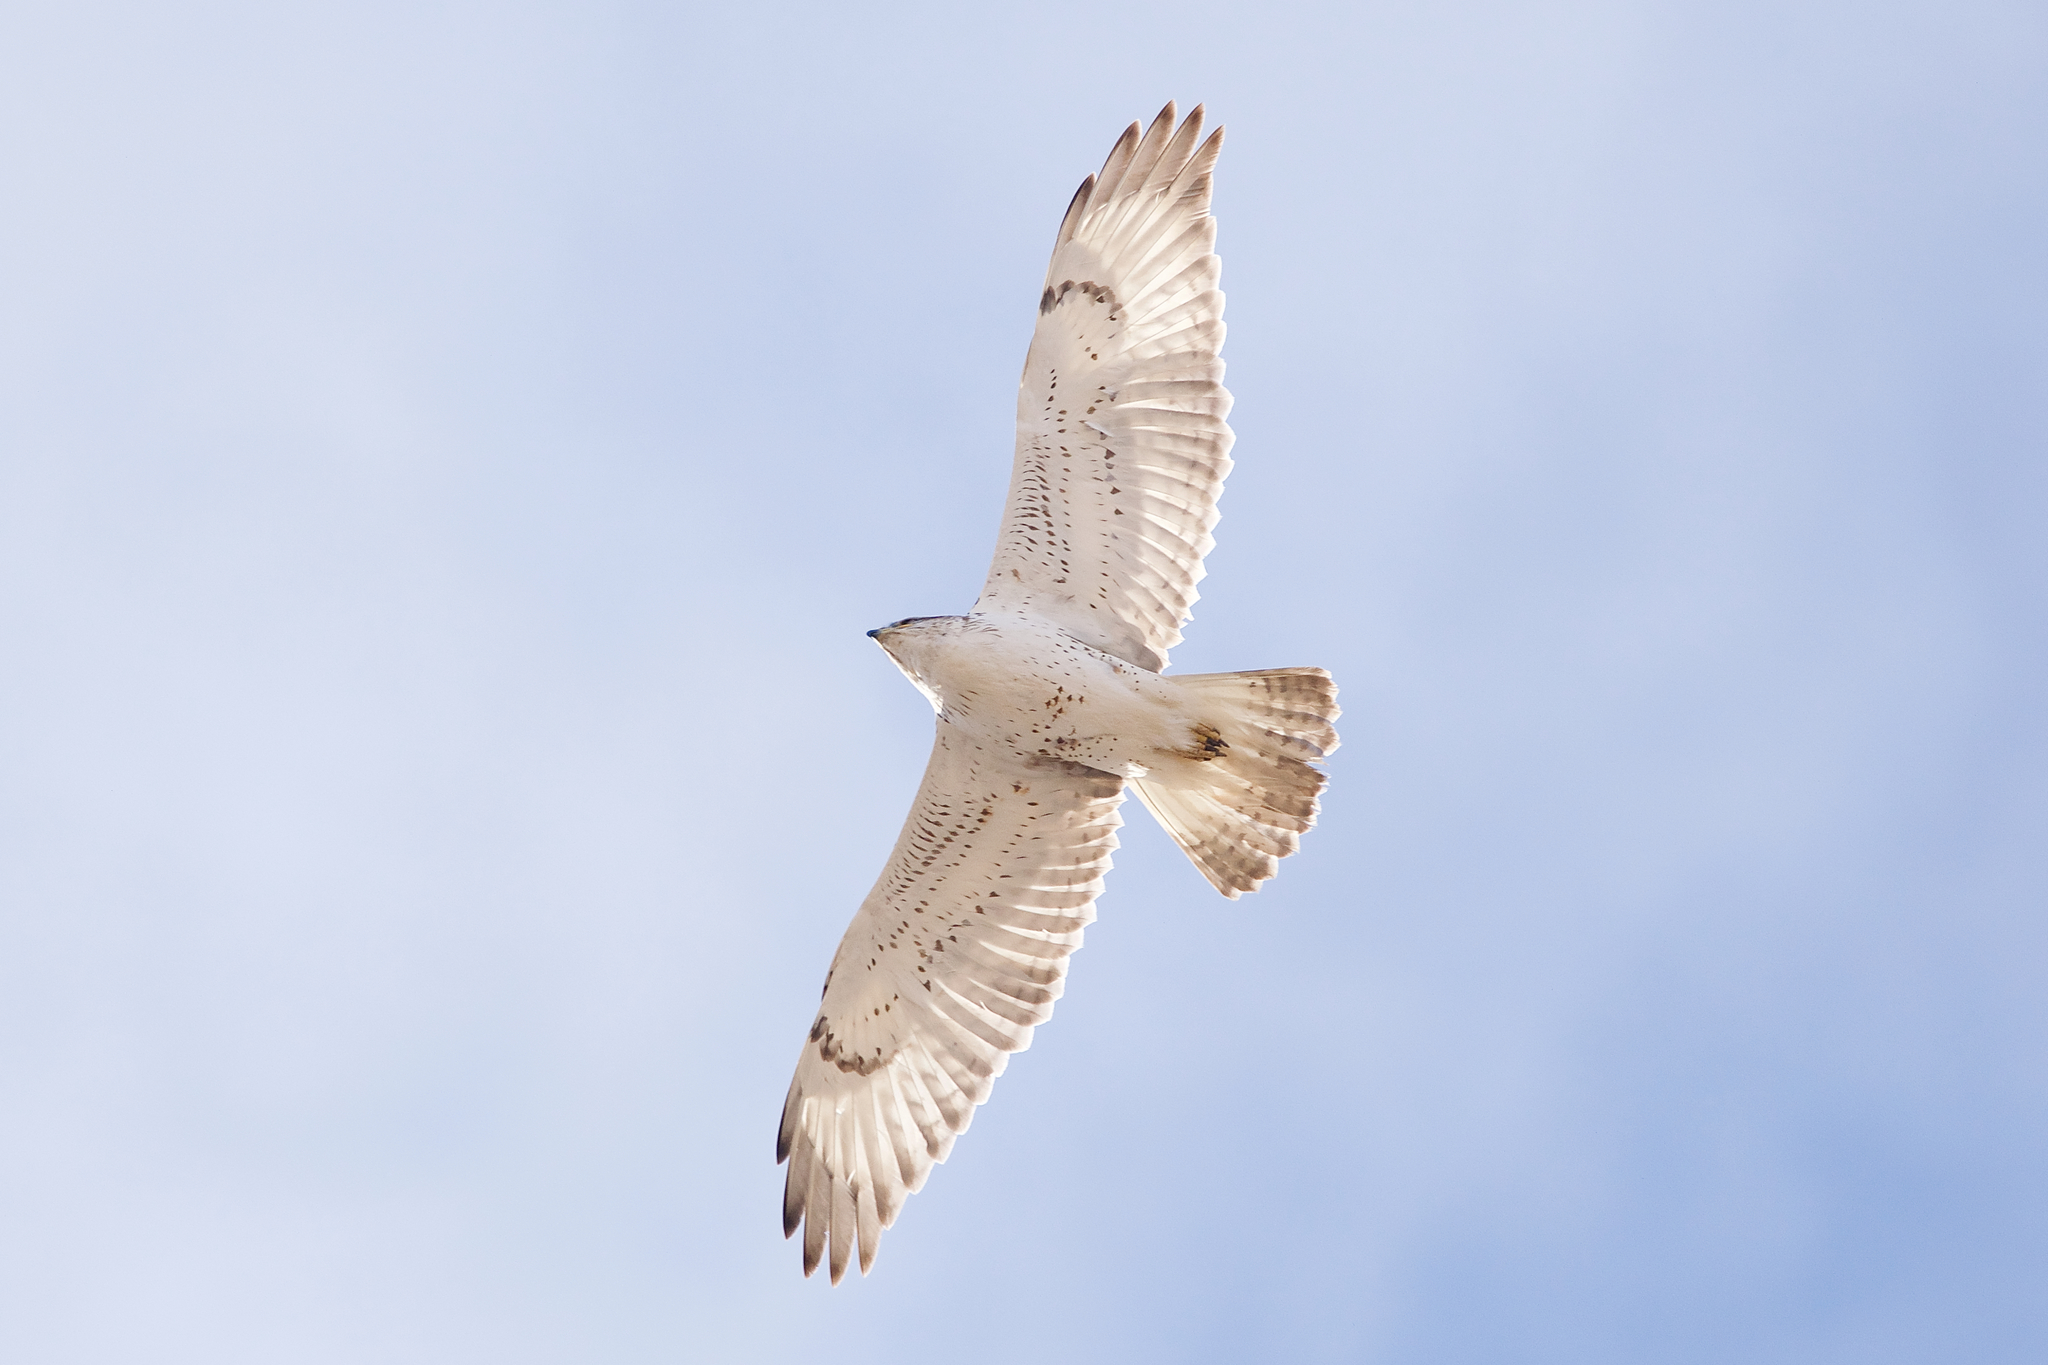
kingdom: Animalia
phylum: Chordata
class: Aves
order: Accipitriformes
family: Accipitridae
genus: Buteo
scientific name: Buteo regalis
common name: Ferruginous hawk
